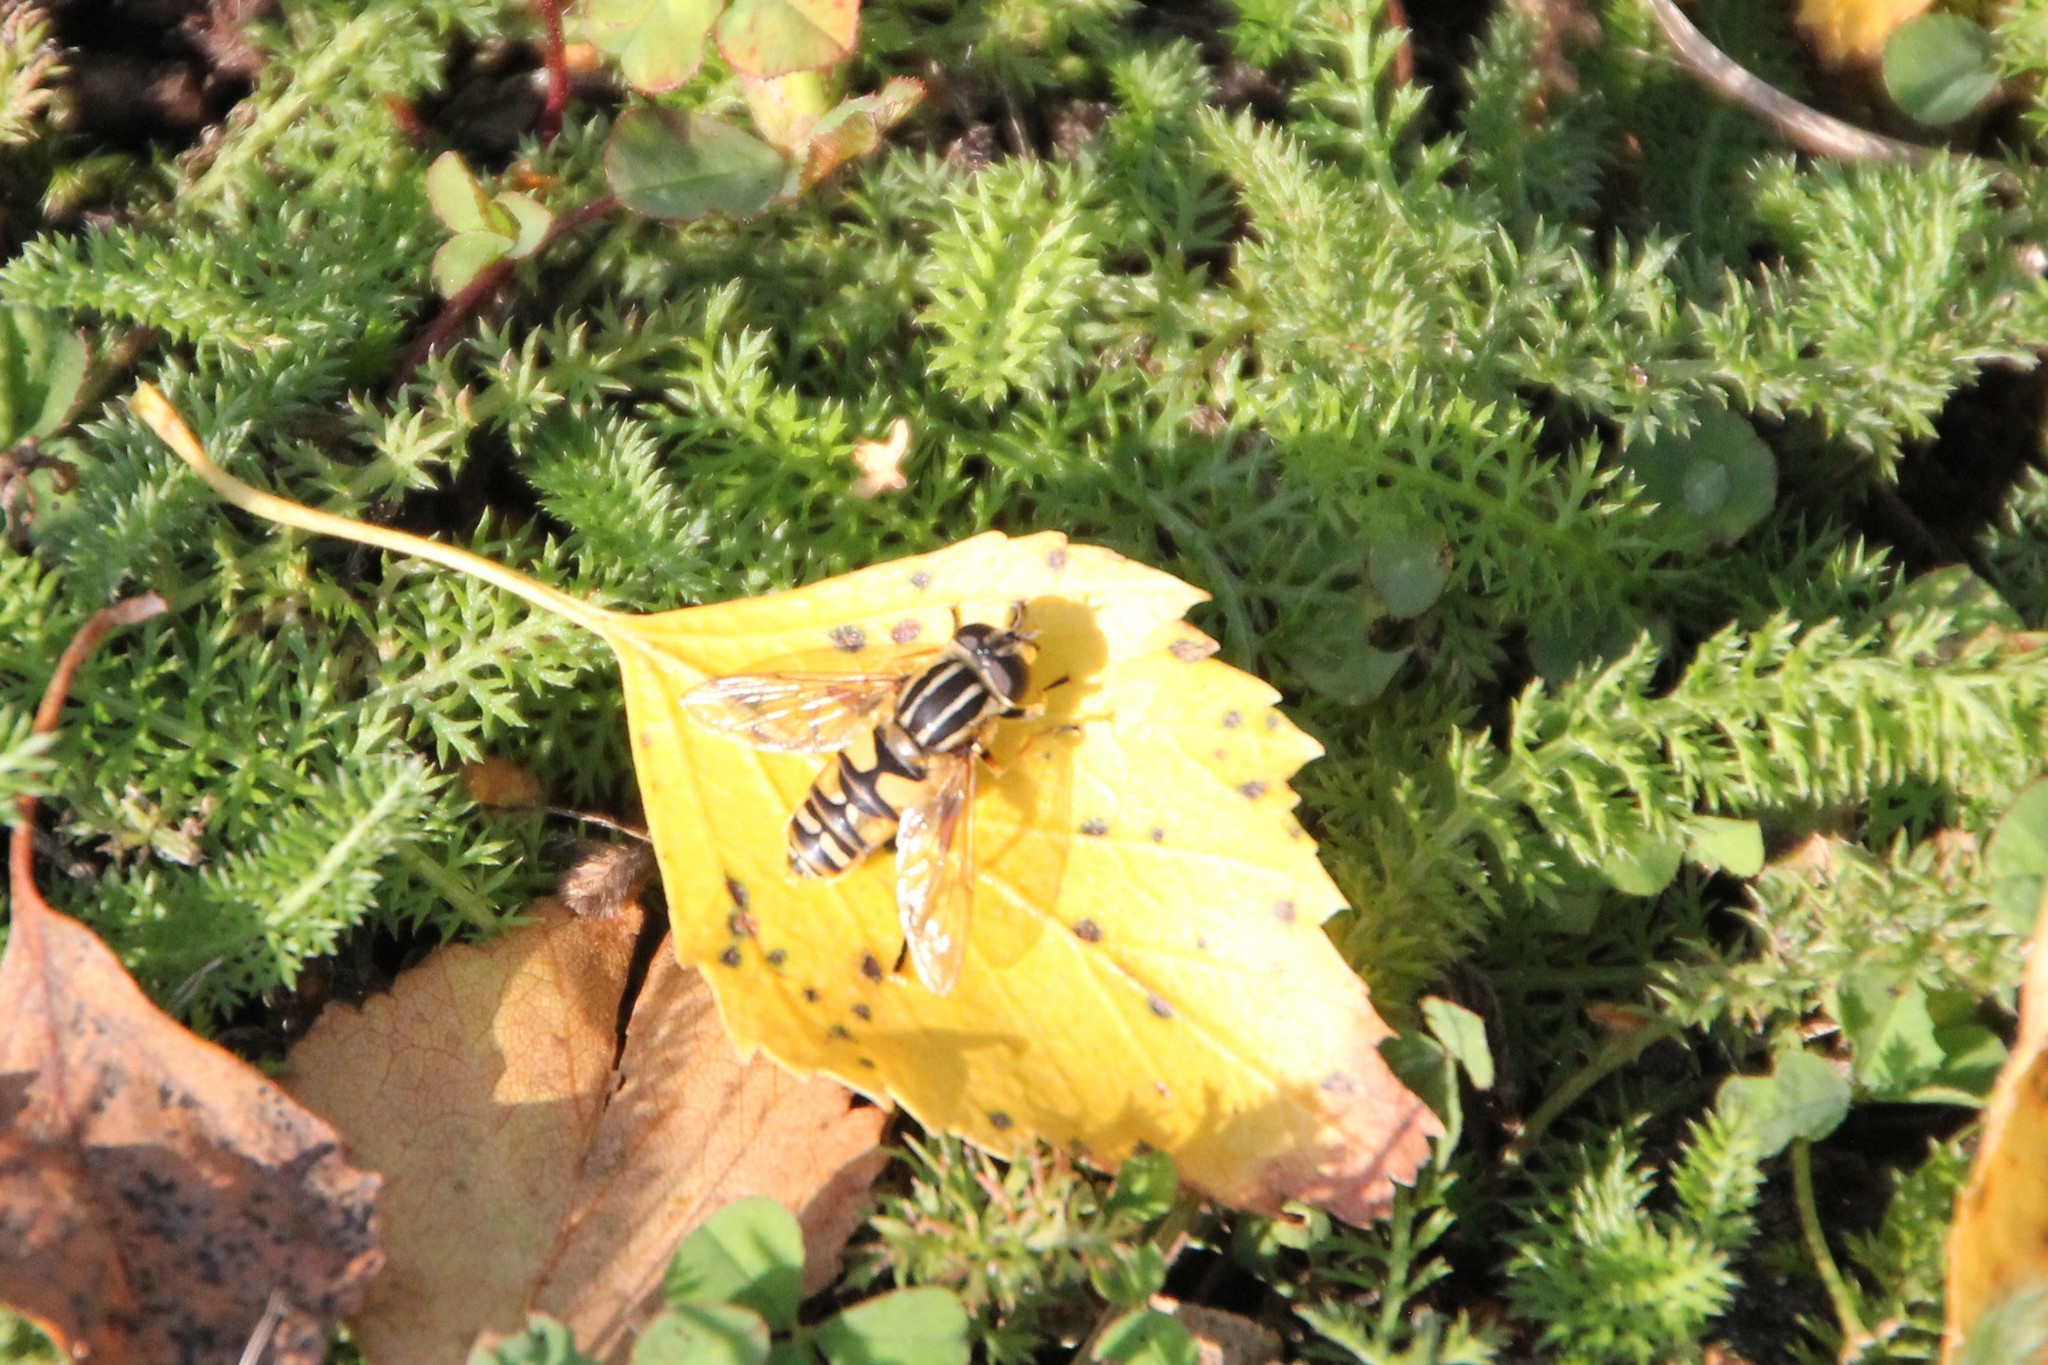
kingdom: Animalia
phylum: Arthropoda
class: Insecta
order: Diptera
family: Syrphidae
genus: Helophilus
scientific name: Helophilus pendulus
